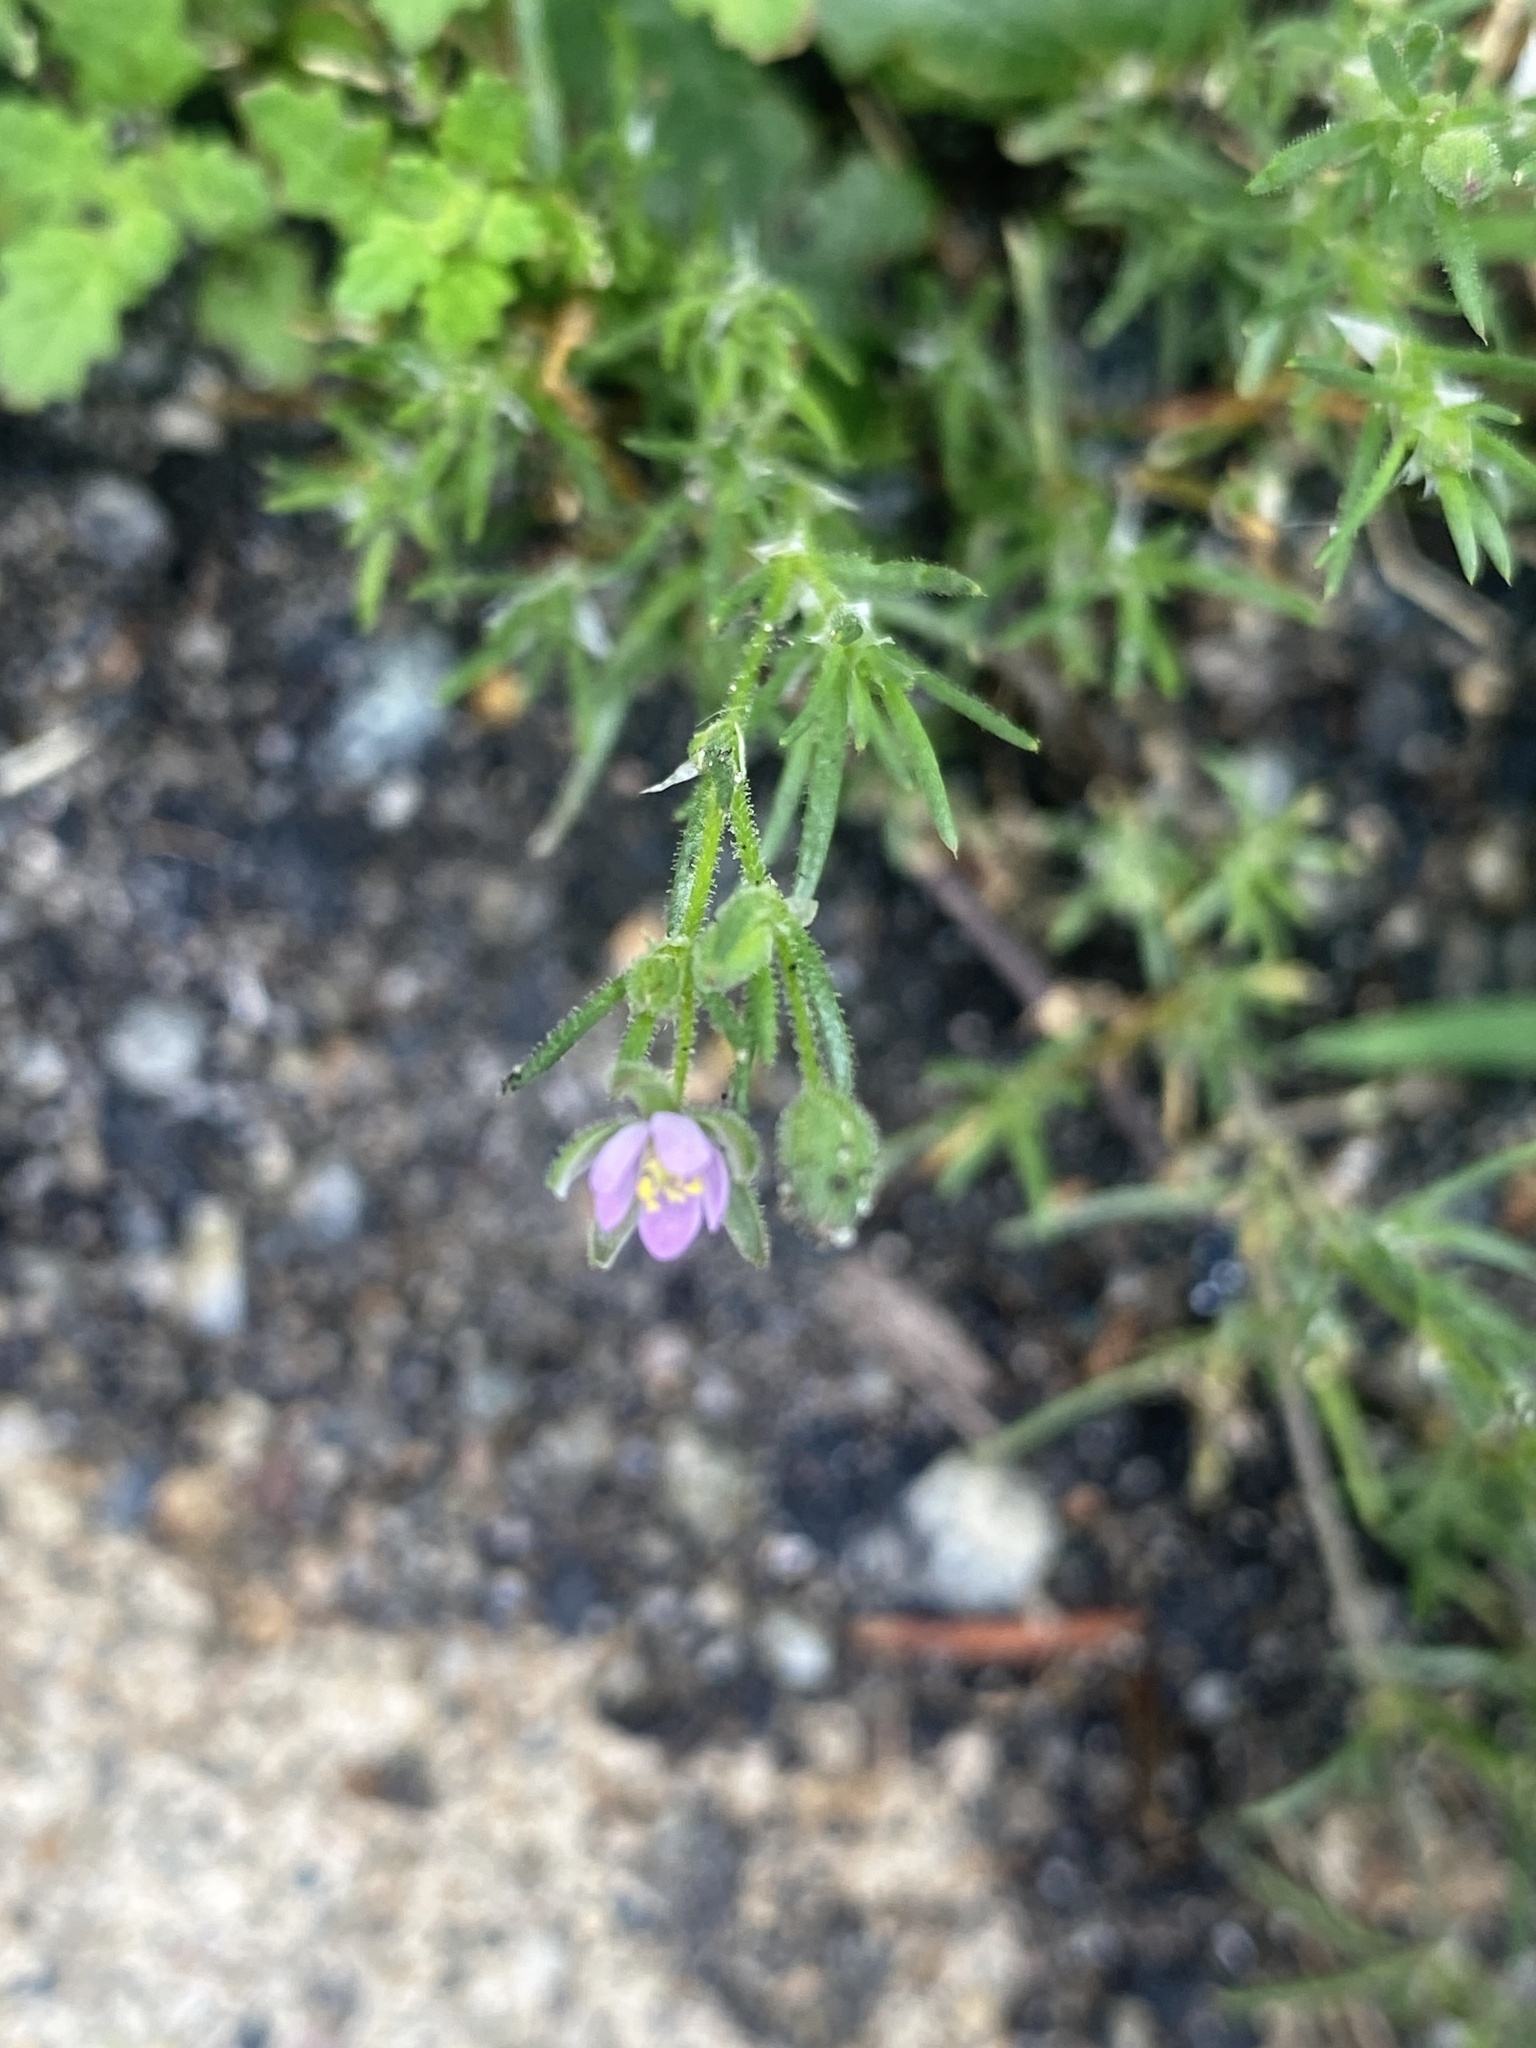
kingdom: Plantae
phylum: Tracheophyta
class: Magnoliopsida
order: Caryophyllales
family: Caryophyllaceae
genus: Spergularia
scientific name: Spergularia rubra
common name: Red sand-spurrey
